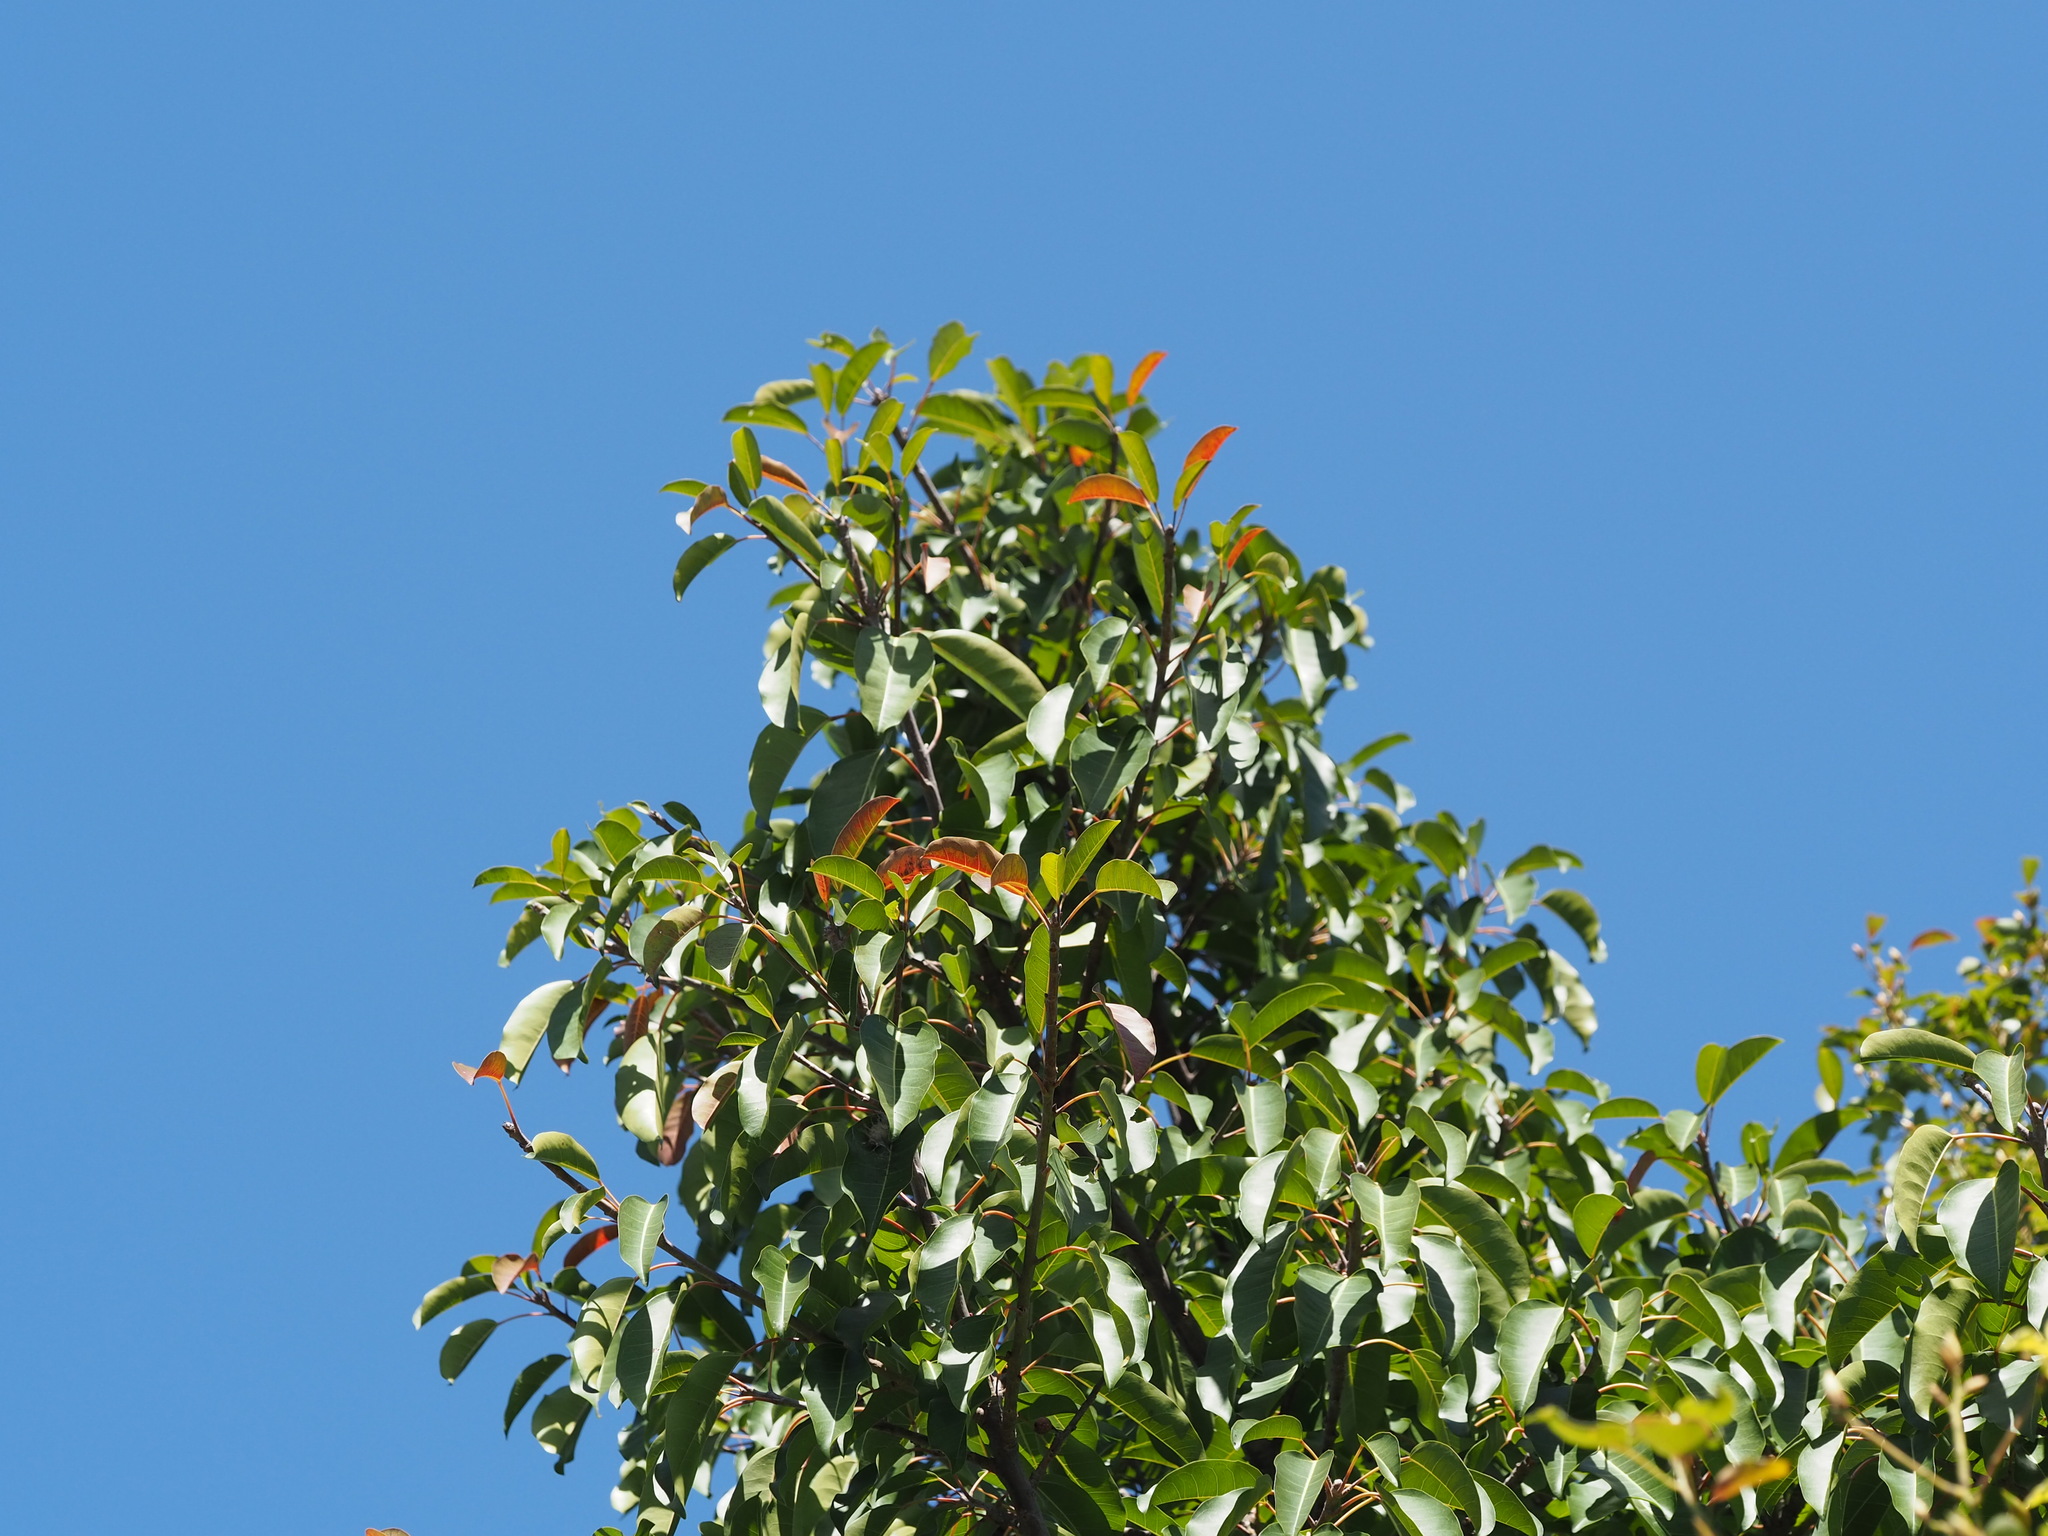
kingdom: Plantae
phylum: Tracheophyta
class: Magnoliopsida
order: Rosales
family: Moraceae
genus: Ficus
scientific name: Ficus subpisocarpa
